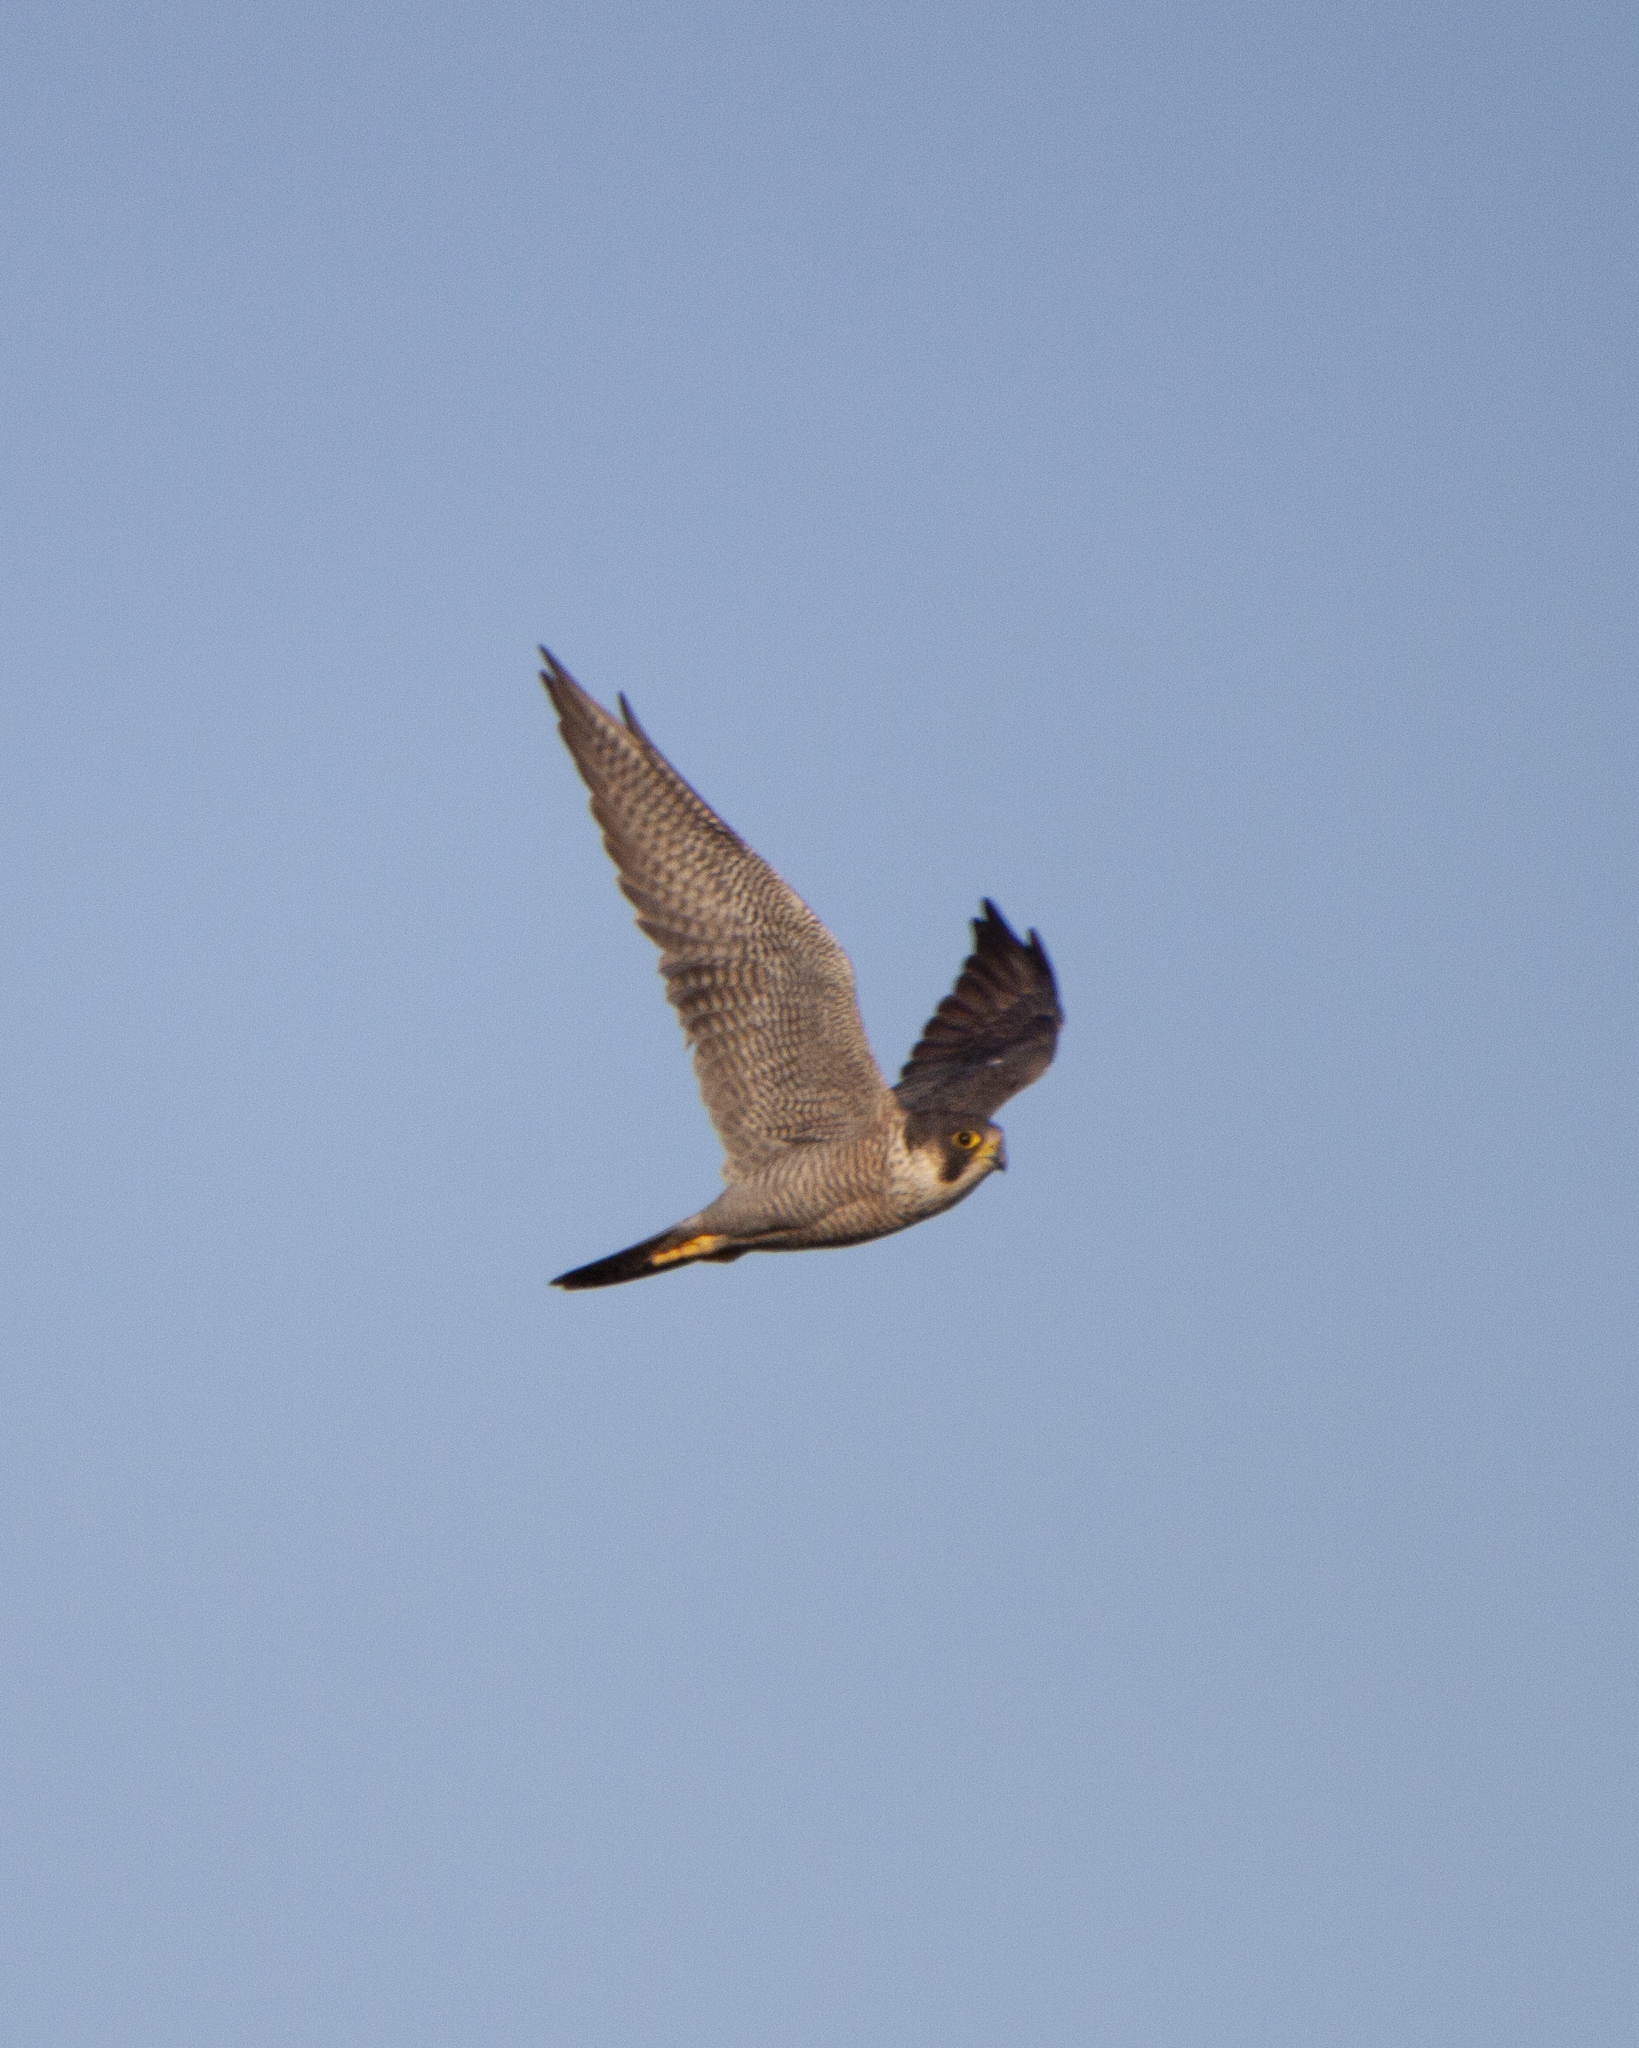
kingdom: Animalia
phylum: Chordata
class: Aves
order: Falconiformes
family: Falconidae
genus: Falco
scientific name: Falco peregrinus
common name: Peregrine falcon
